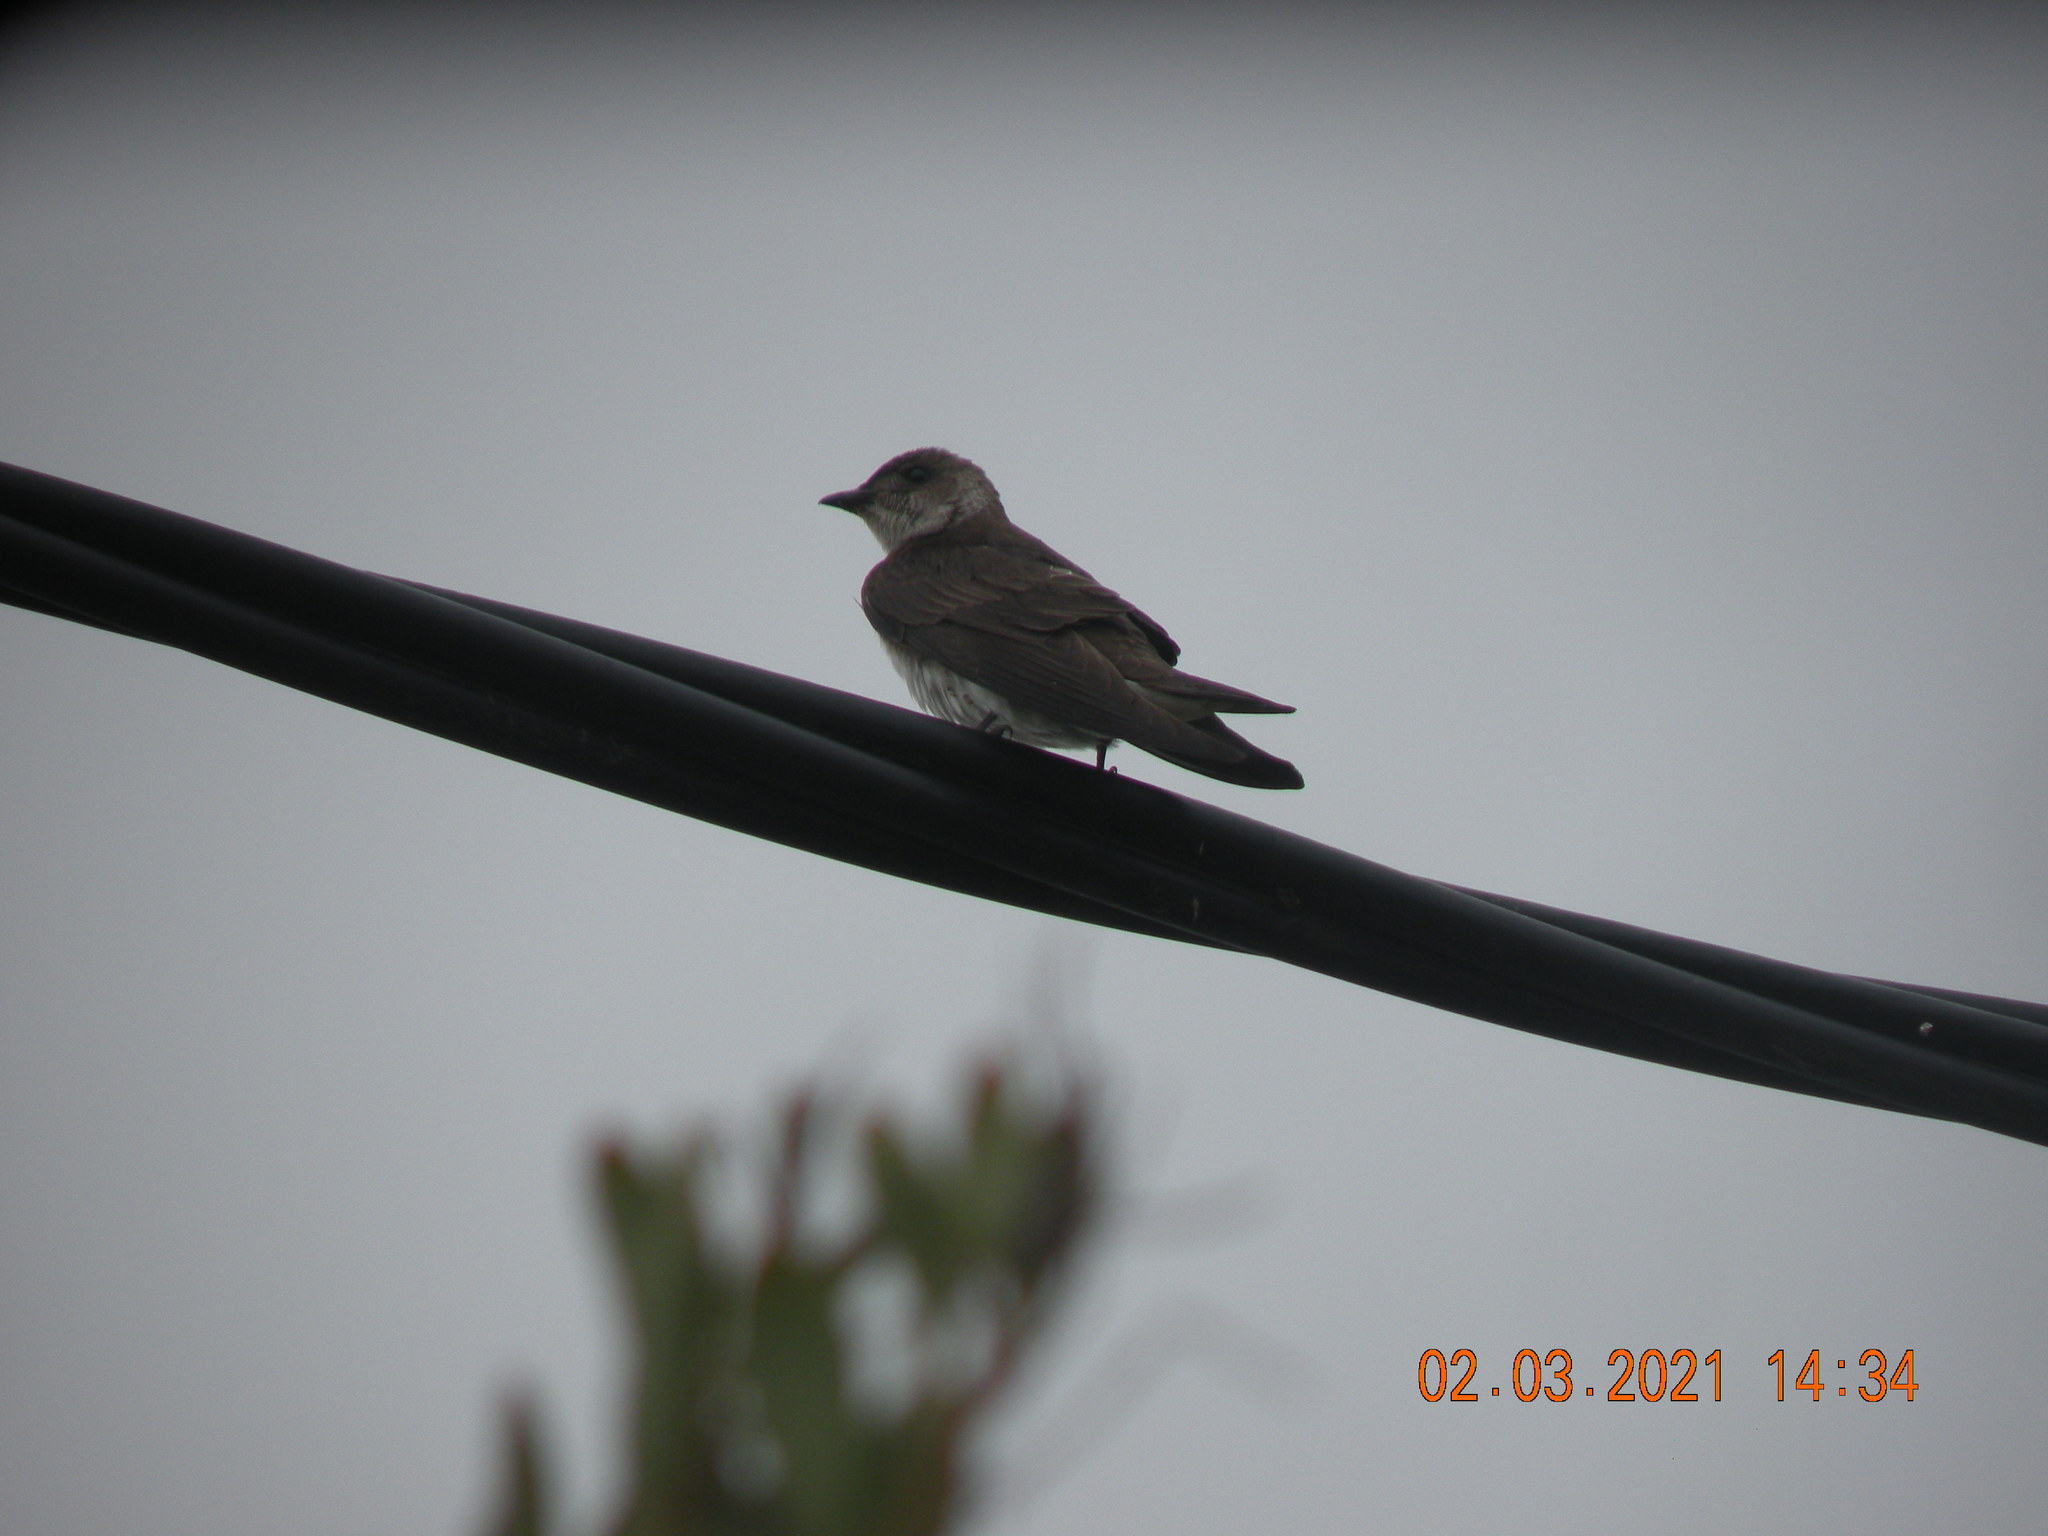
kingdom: Animalia
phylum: Chordata
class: Aves
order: Passeriformes
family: Hirundinidae
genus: Progne
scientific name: Progne tapera
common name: Brown-chested martin
